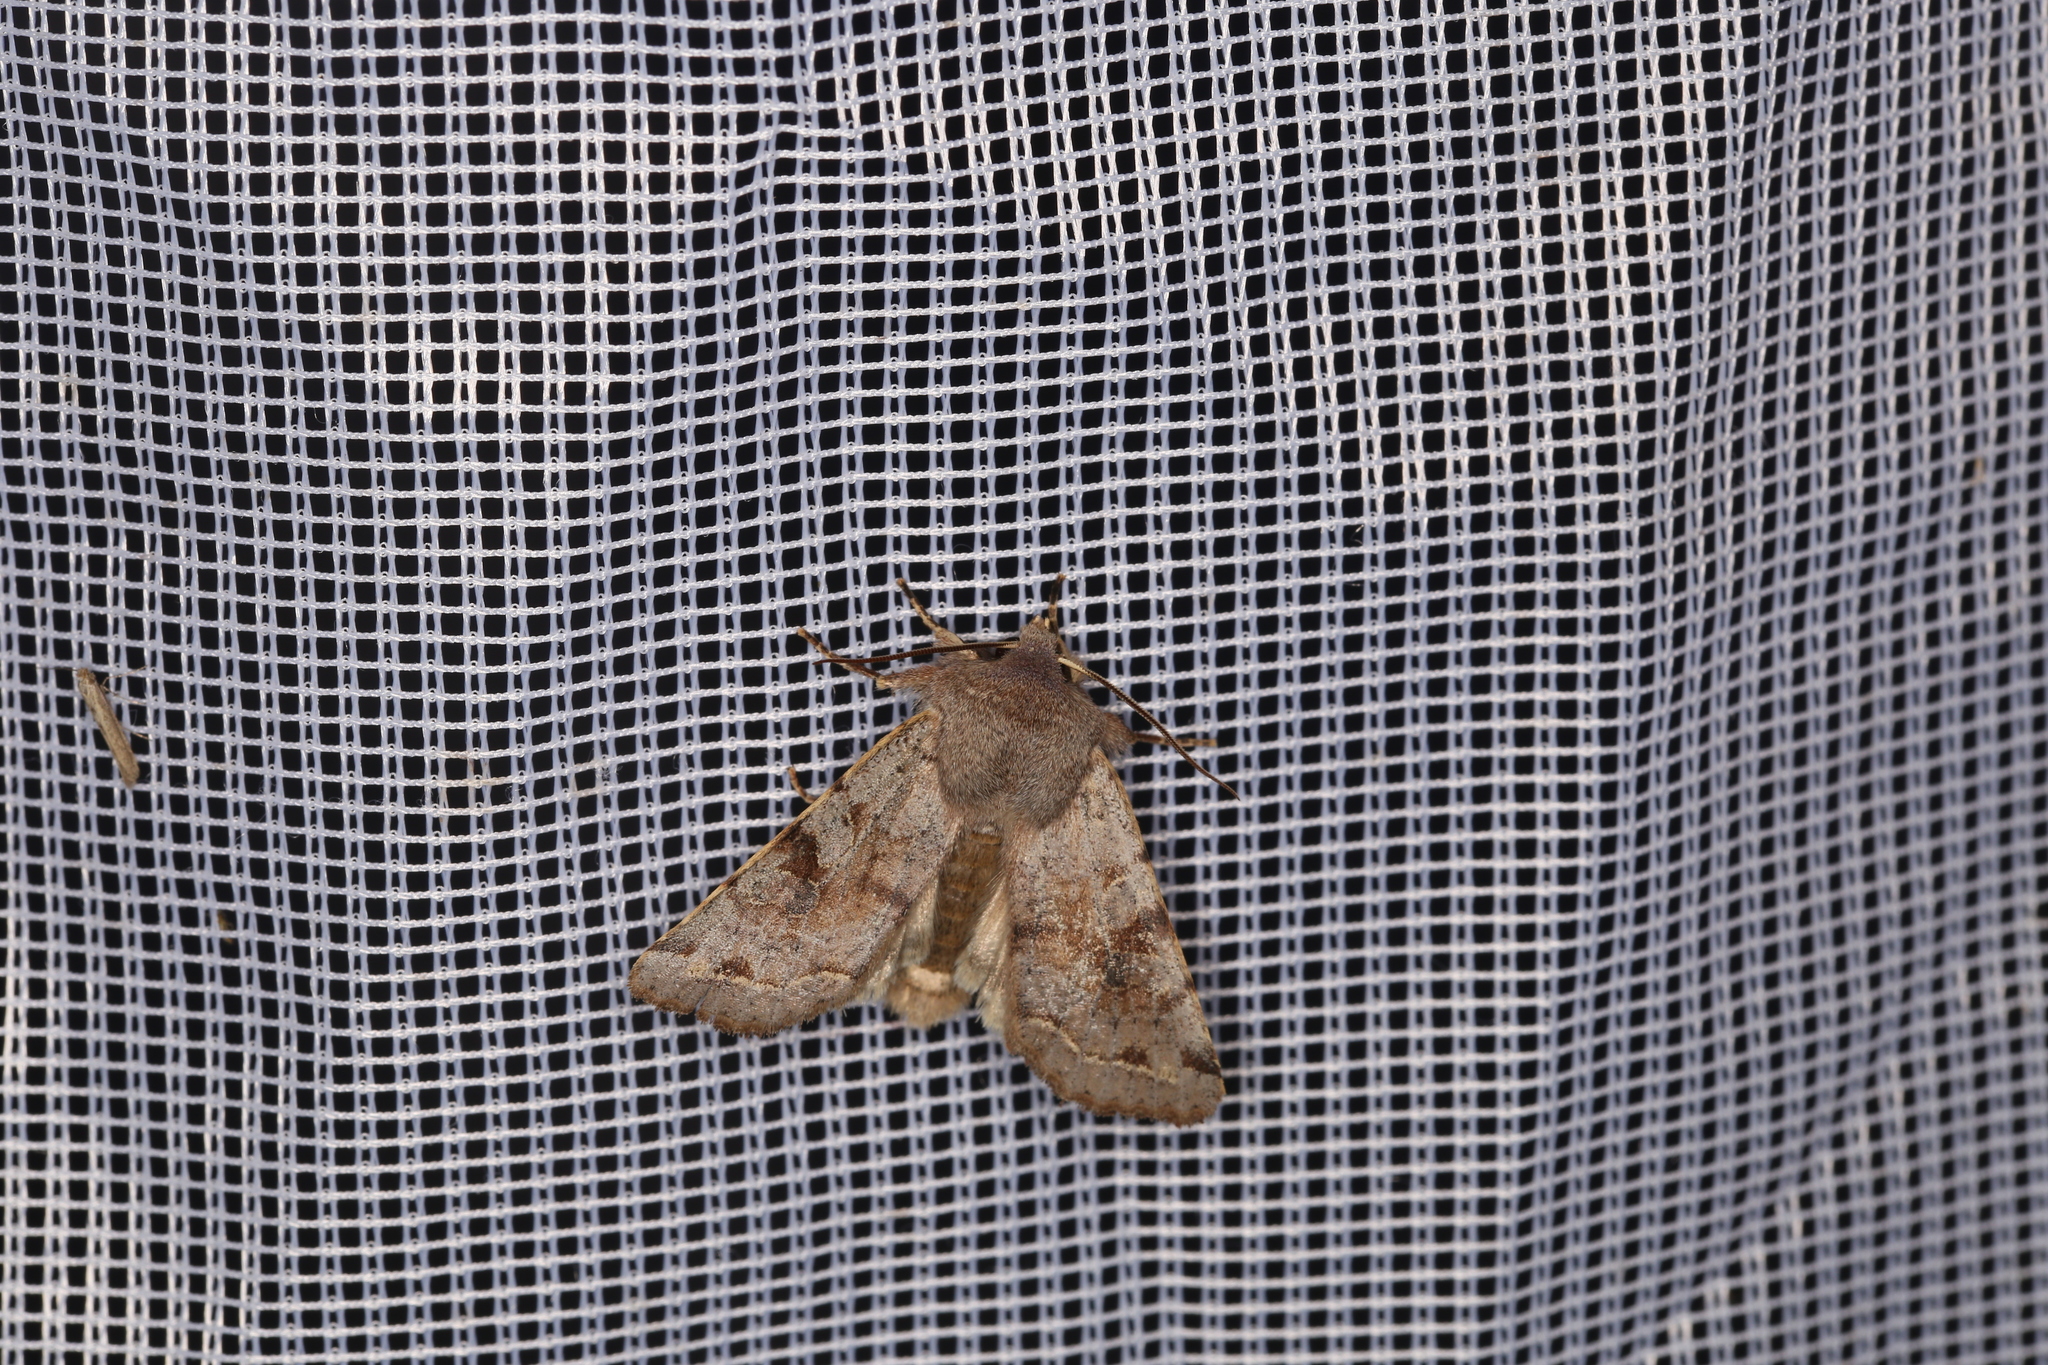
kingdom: Animalia
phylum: Arthropoda
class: Insecta
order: Lepidoptera
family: Noctuidae
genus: Orthosia
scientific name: Orthosia incerta
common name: Clouded drab
